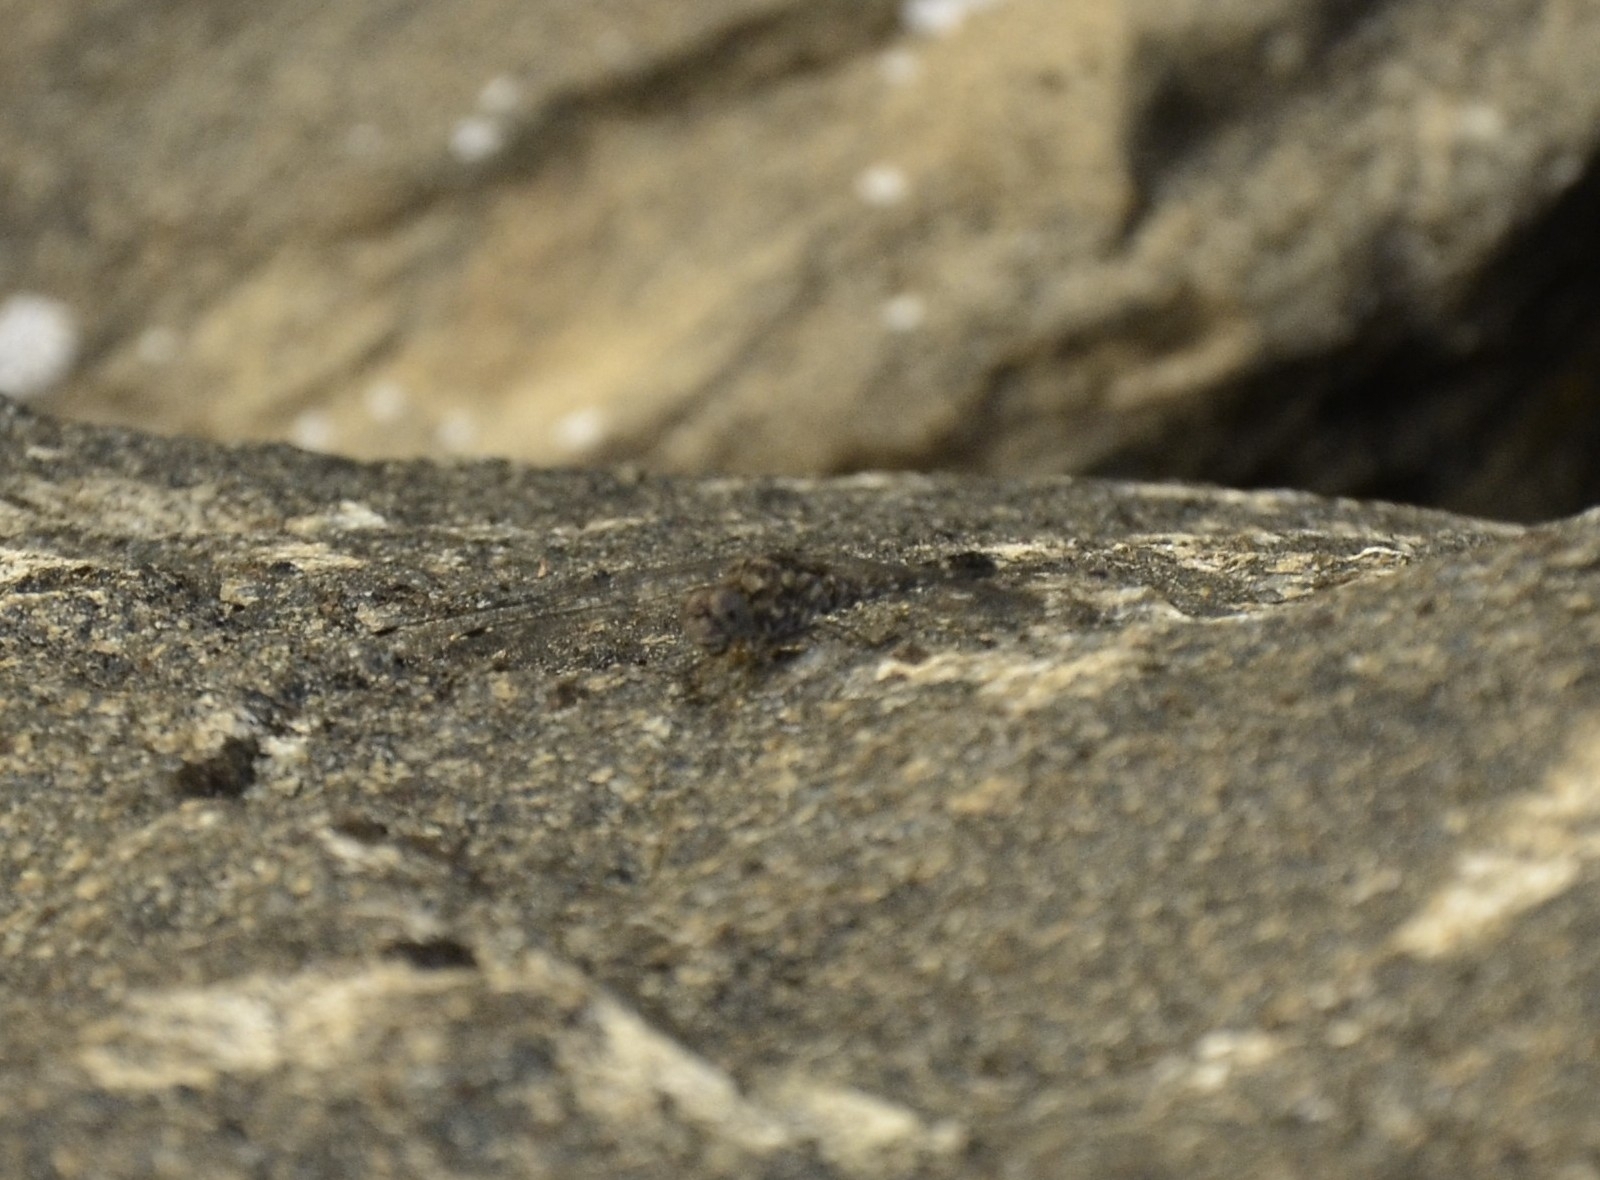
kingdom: Animalia
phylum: Arthropoda
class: Insecta
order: Odonata
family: Libellulidae
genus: Bradinopyga
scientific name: Bradinopyga geminata
